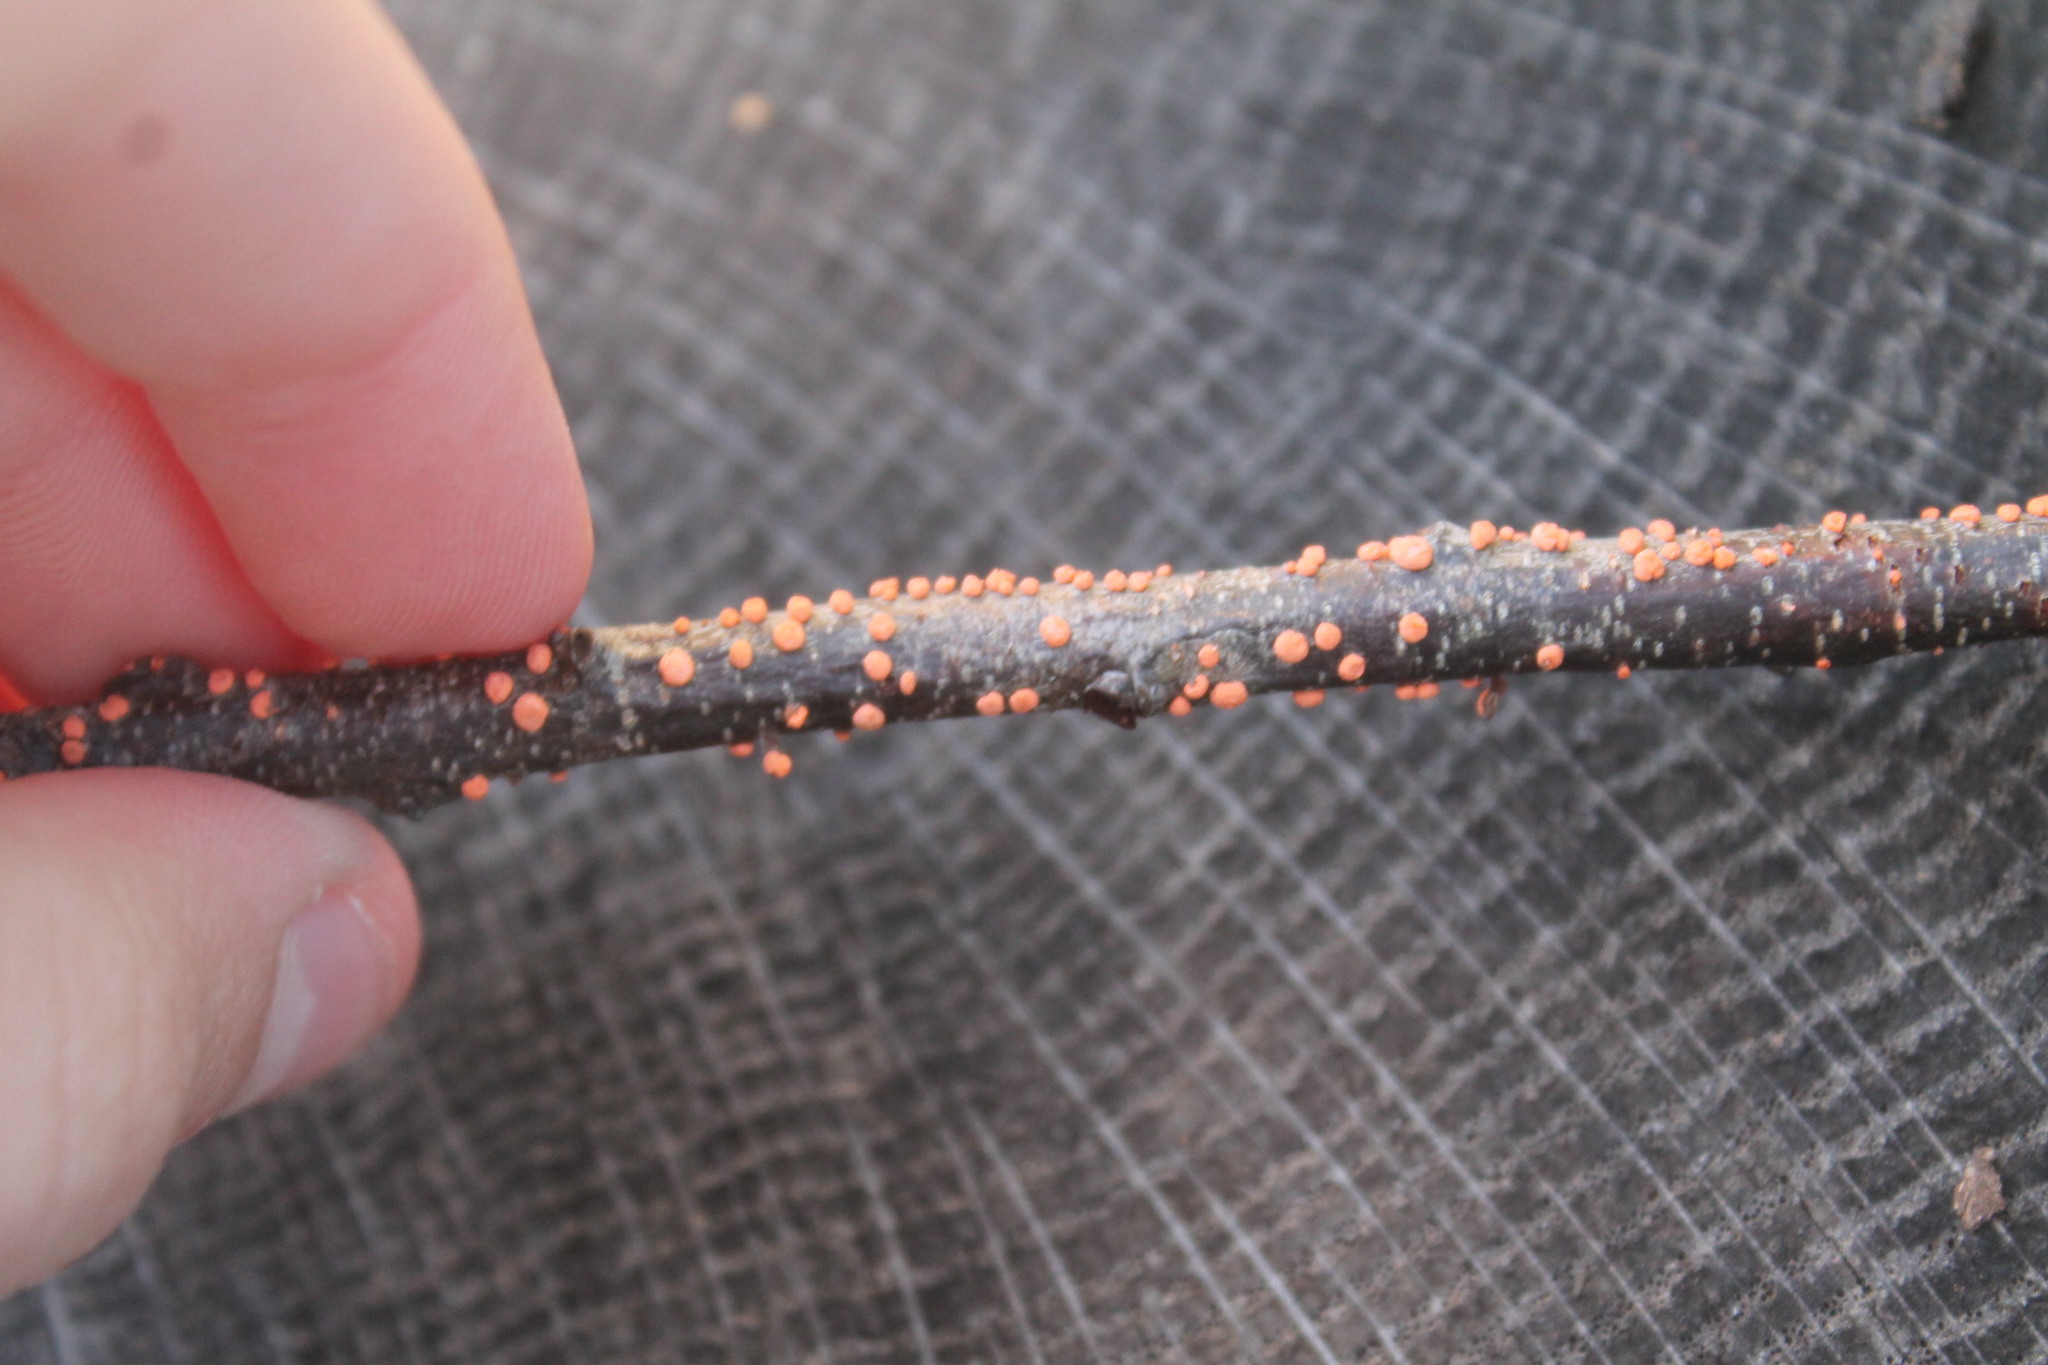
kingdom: Fungi
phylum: Ascomycota
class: Sordariomycetes
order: Hypocreales
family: Nectriaceae
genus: Nectria
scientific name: Nectria cinnabarina
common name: Coral spot
